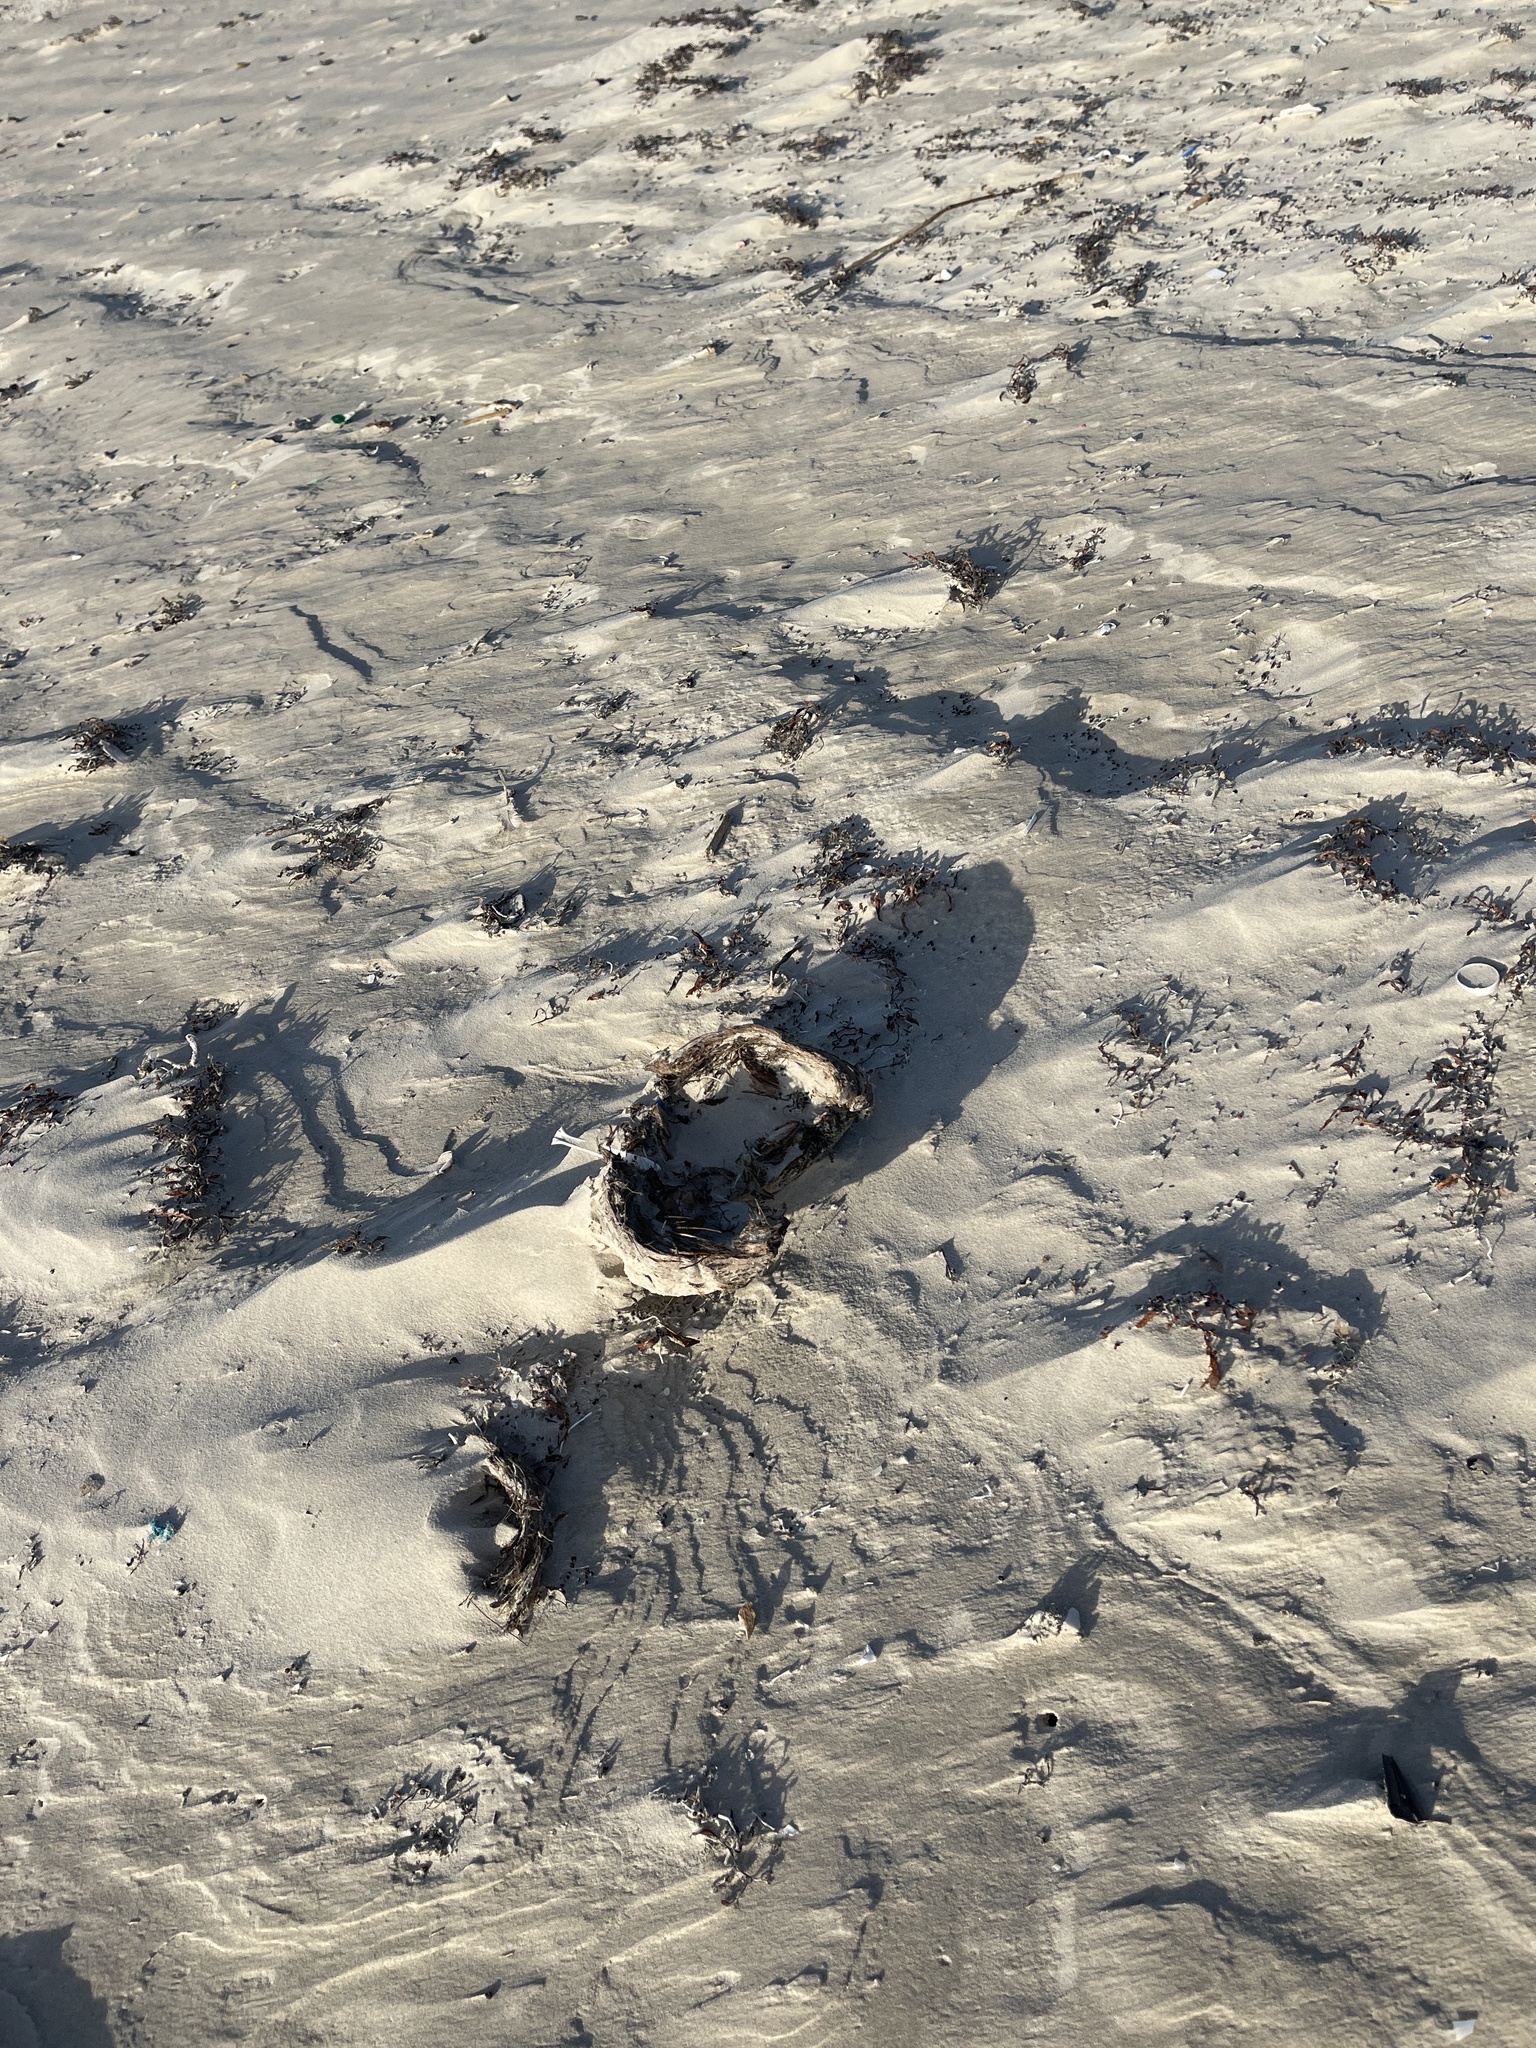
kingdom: Plantae
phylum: Tracheophyta
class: Liliopsida
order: Arecales
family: Arecaceae
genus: Cocos
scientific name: Cocos nucifera
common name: Coconut palm
